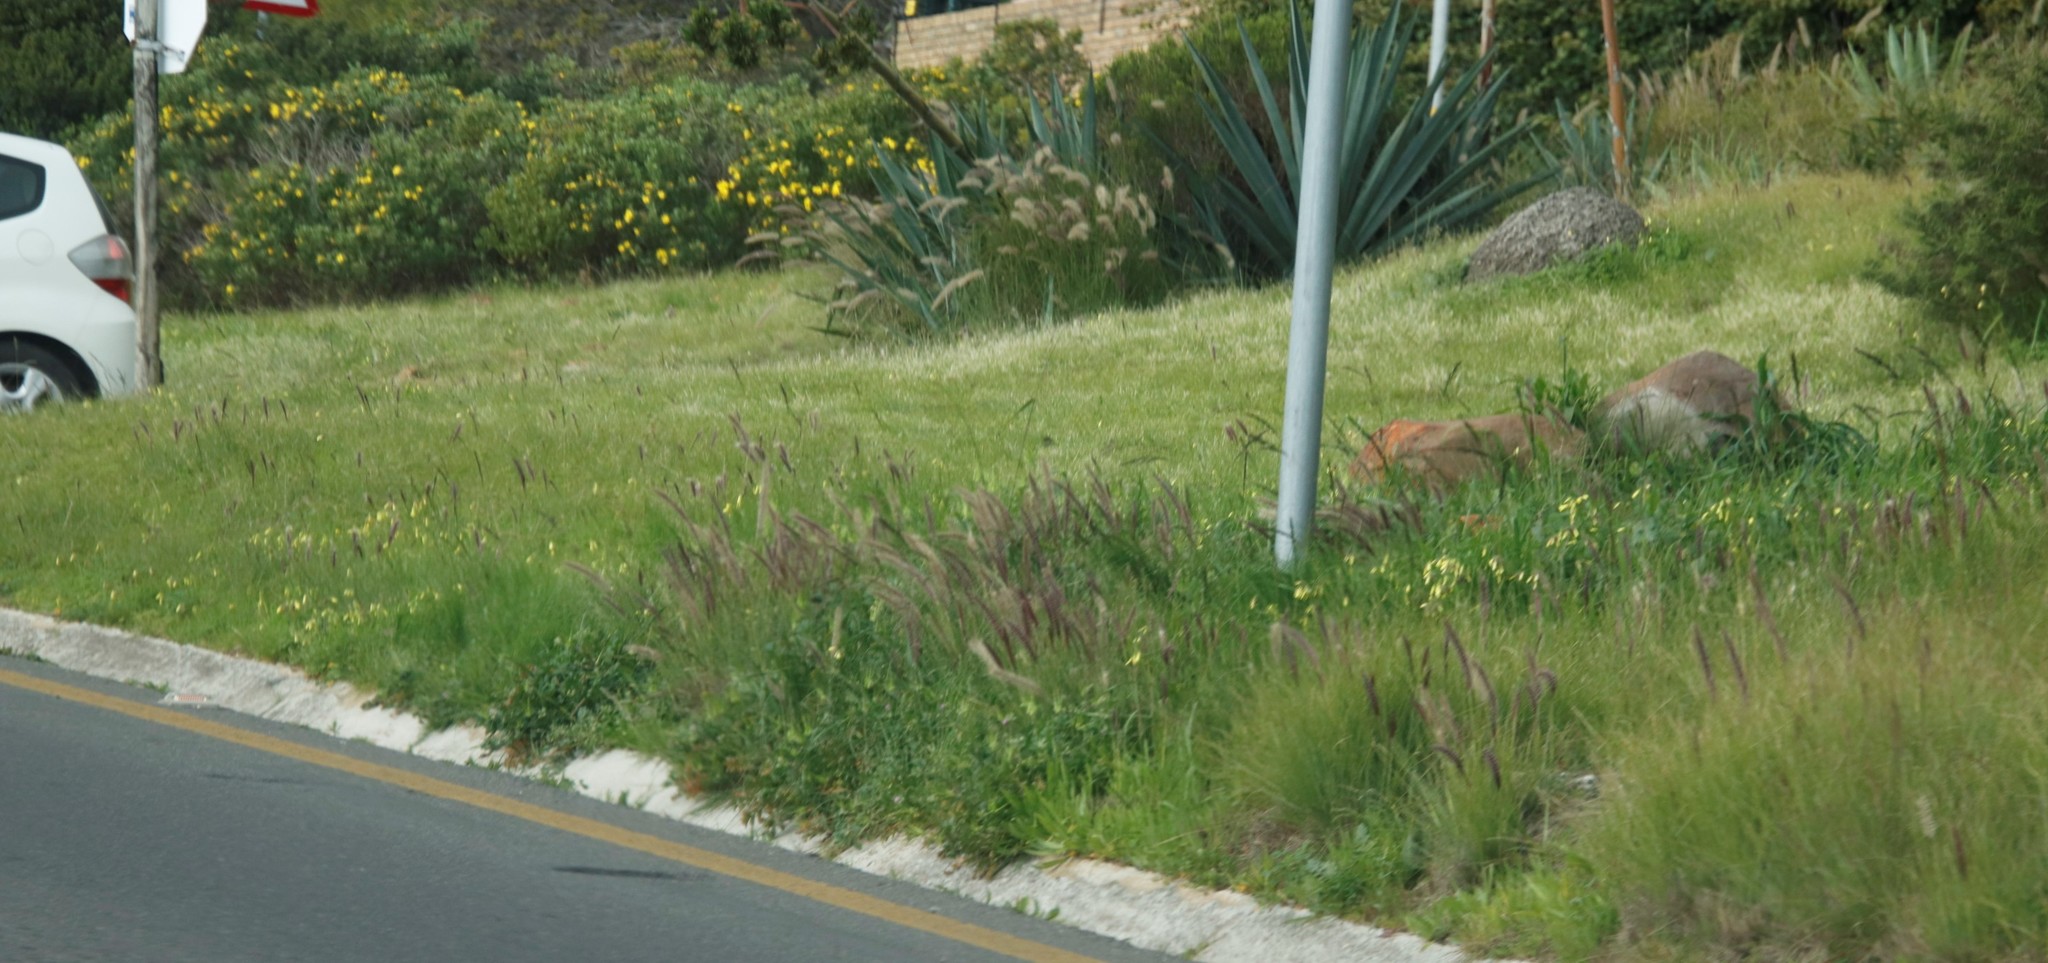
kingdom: Plantae
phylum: Tracheophyta
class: Liliopsida
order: Poales
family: Poaceae
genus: Cenchrus
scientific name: Cenchrus setaceus
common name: Crimson fountaingrass
